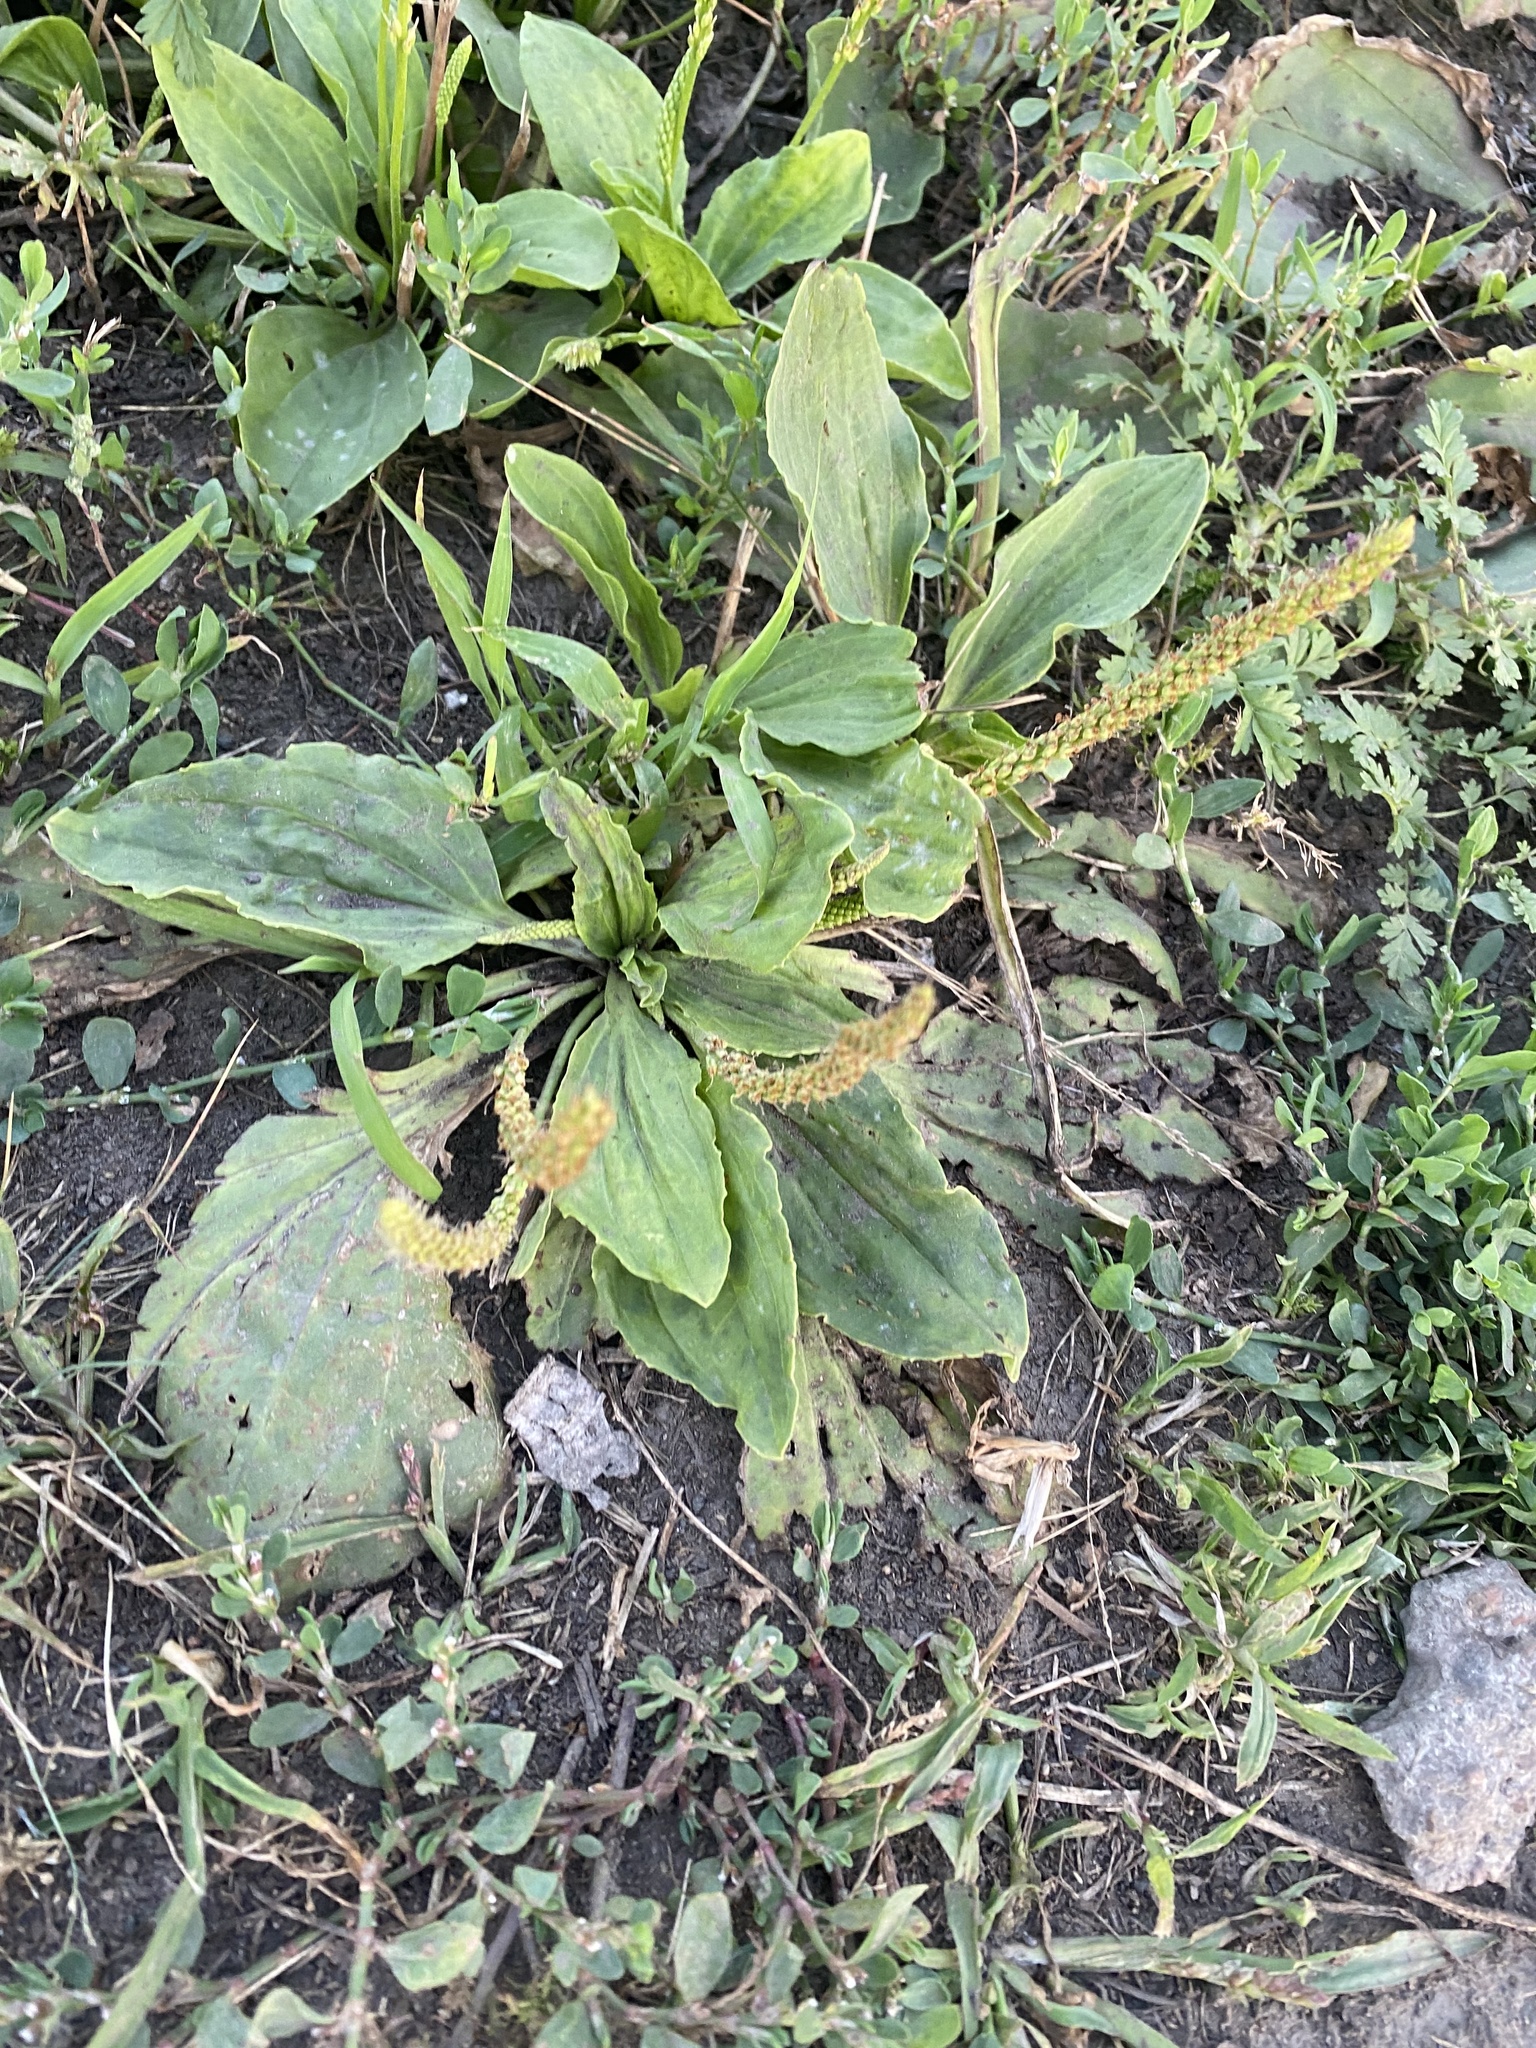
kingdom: Plantae
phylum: Tracheophyta
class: Magnoliopsida
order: Lamiales
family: Plantaginaceae
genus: Plantago
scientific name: Plantago major
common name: Common plantain
